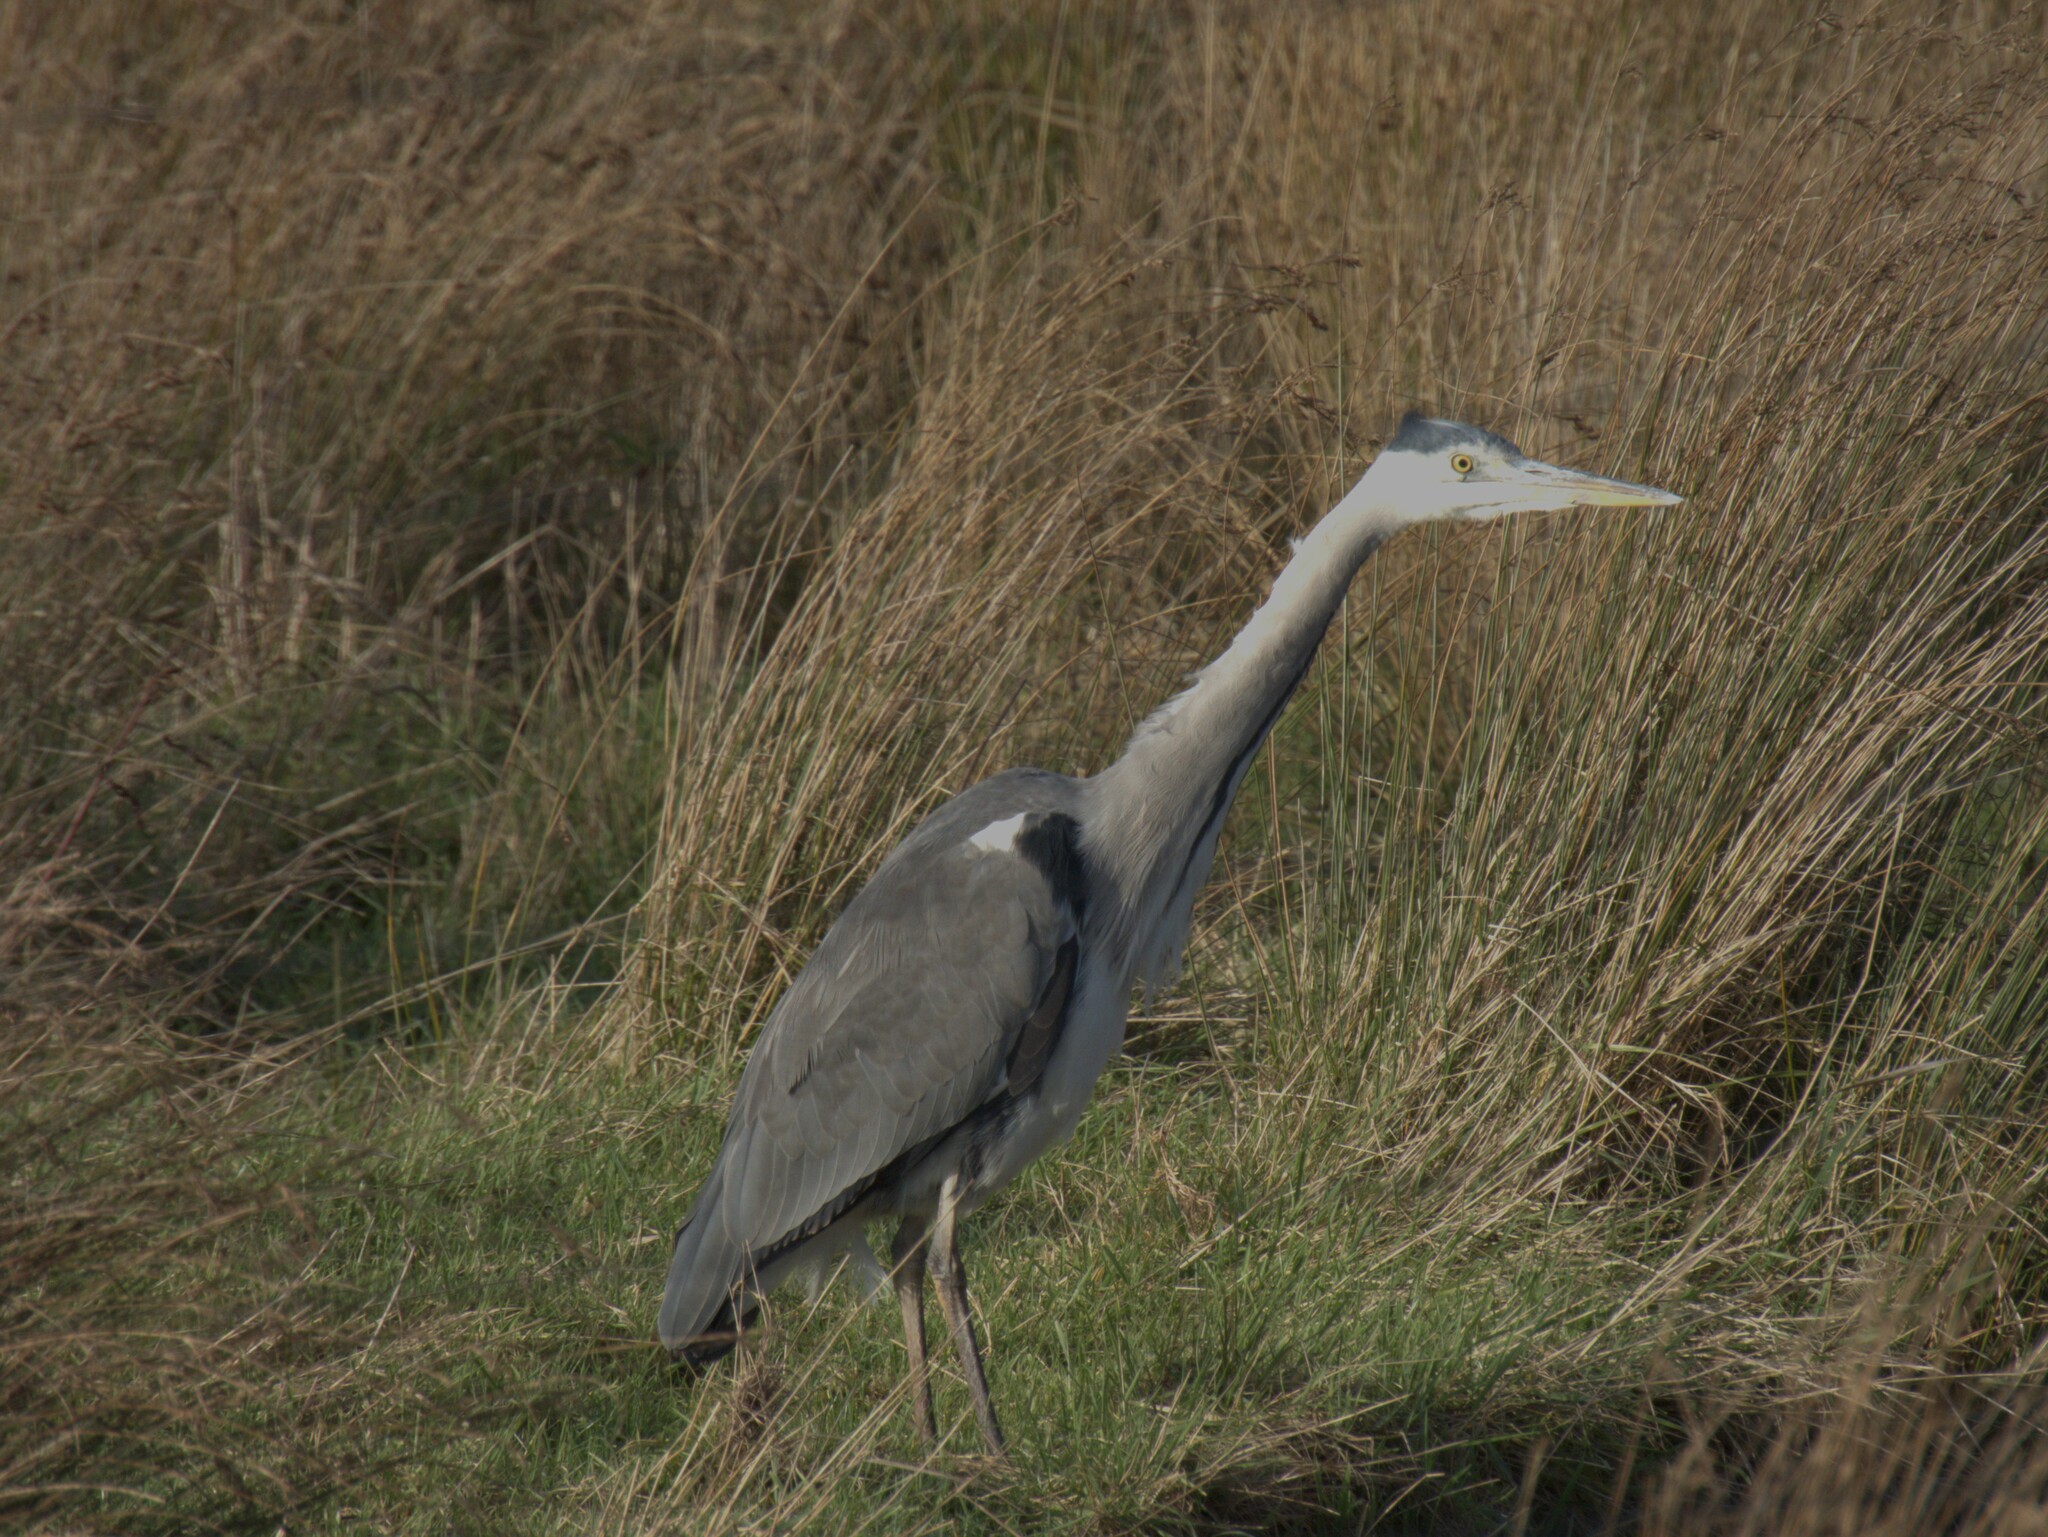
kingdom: Animalia
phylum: Chordata
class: Aves
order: Pelecaniformes
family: Ardeidae
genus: Ardea
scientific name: Ardea cinerea
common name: Grey heron
